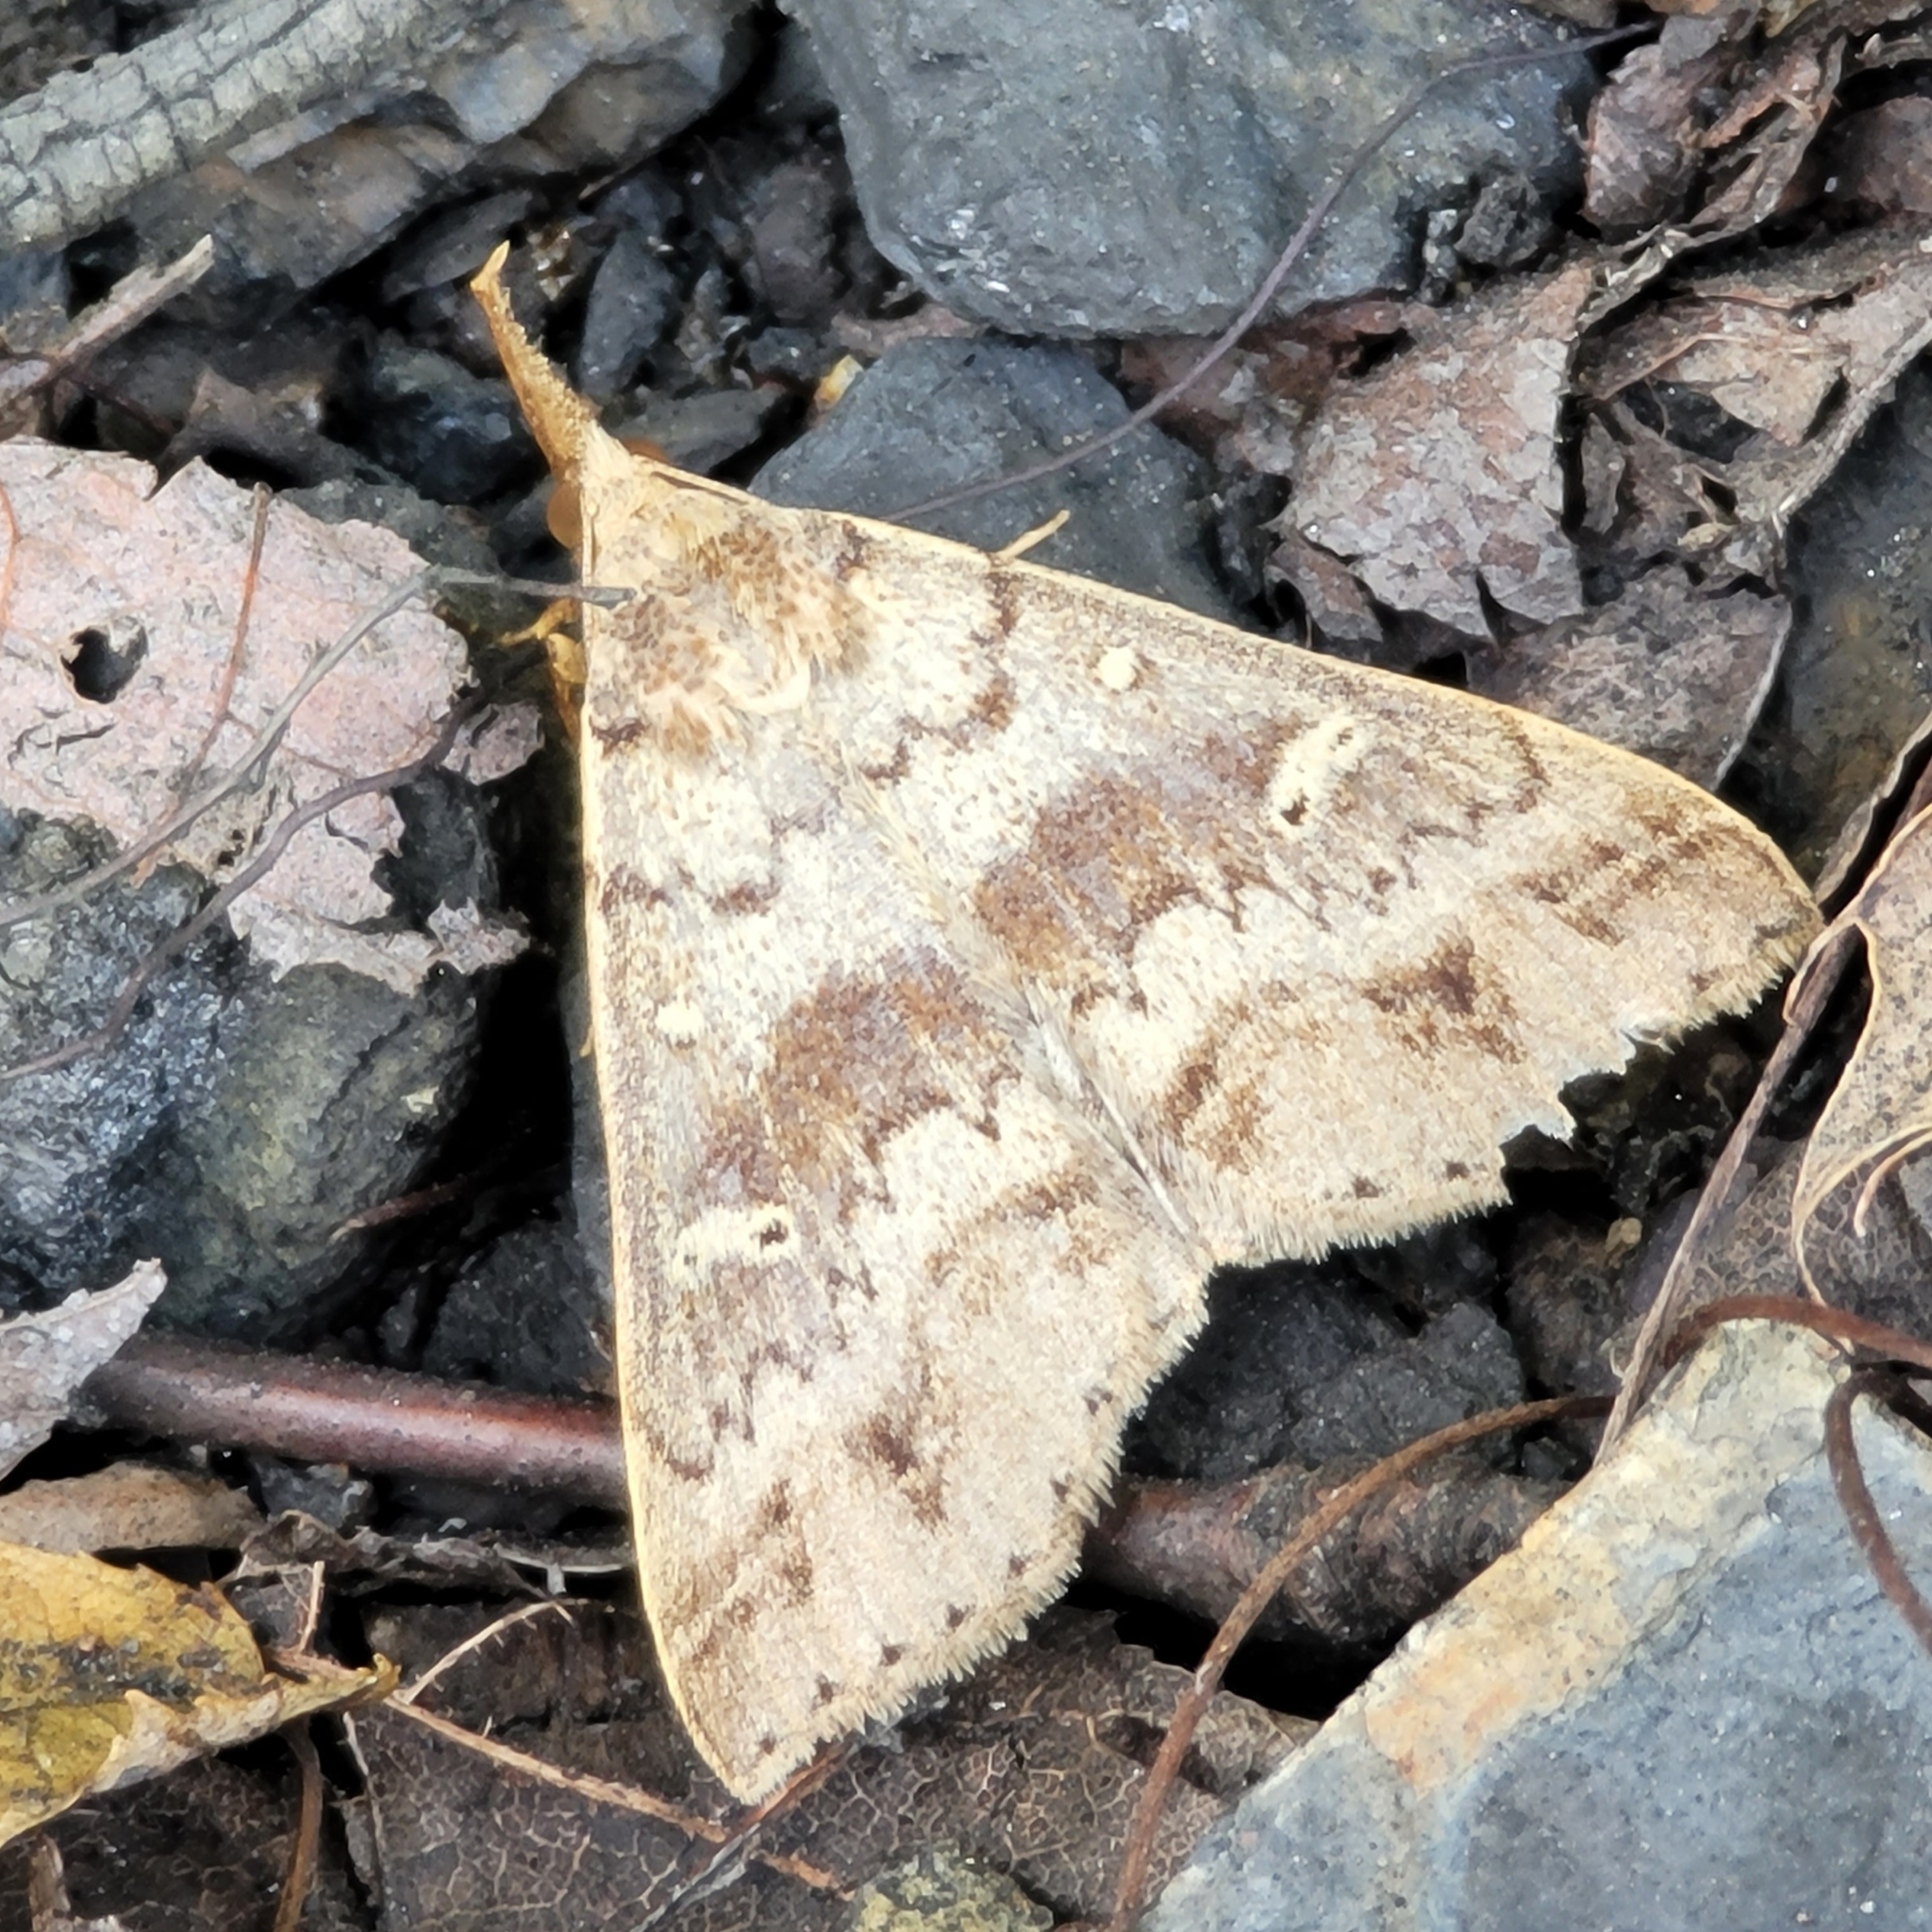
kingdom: Animalia
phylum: Arthropoda
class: Insecta
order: Lepidoptera
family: Erebidae
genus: Renia
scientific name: Renia discoloralis
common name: Discolored renia moth
